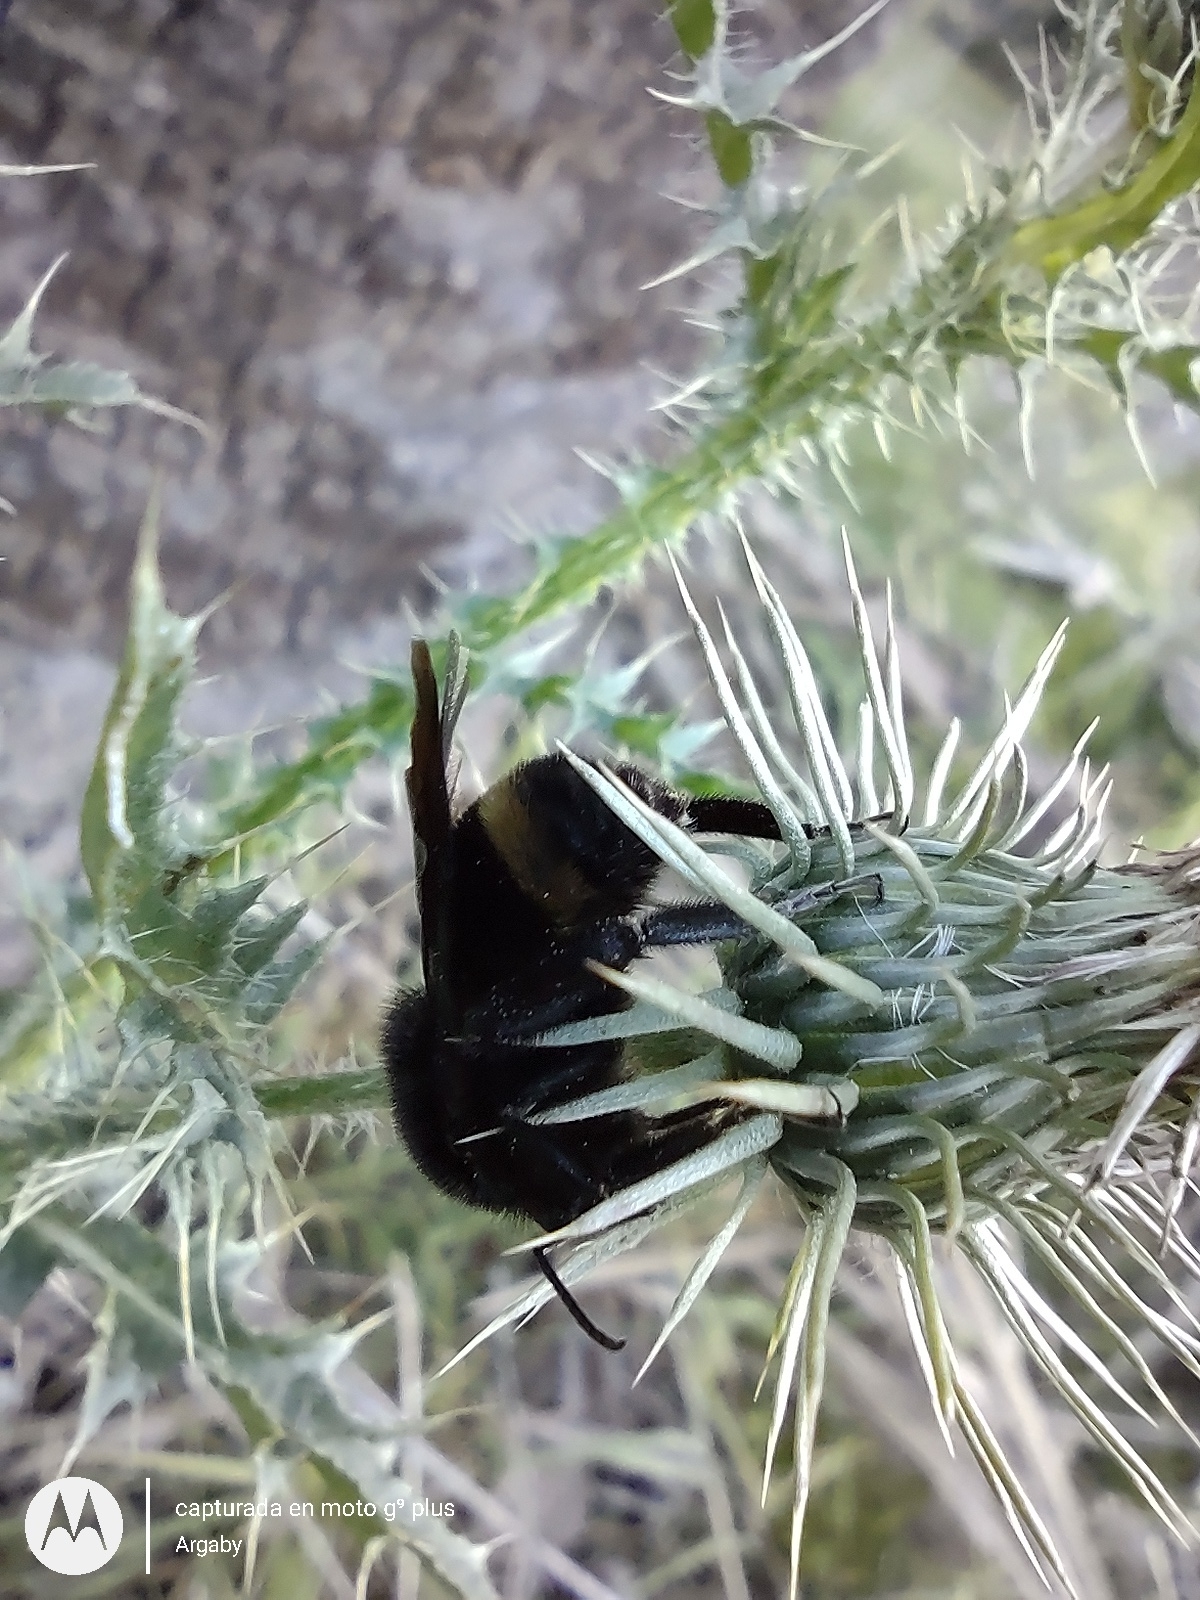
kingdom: Animalia
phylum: Arthropoda
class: Insecta
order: Hymenoptera
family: Apidae
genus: Bombus
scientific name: Bombus pauloensis
